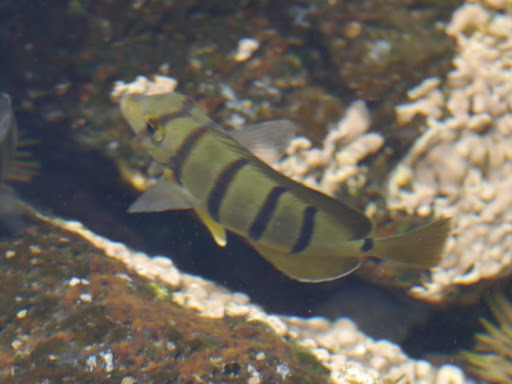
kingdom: Animalia
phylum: Chordata
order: Perciformes
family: Acanthuridae
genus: Acanthurus
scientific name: Acanthurus triostegus
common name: Convict surgeonfish
